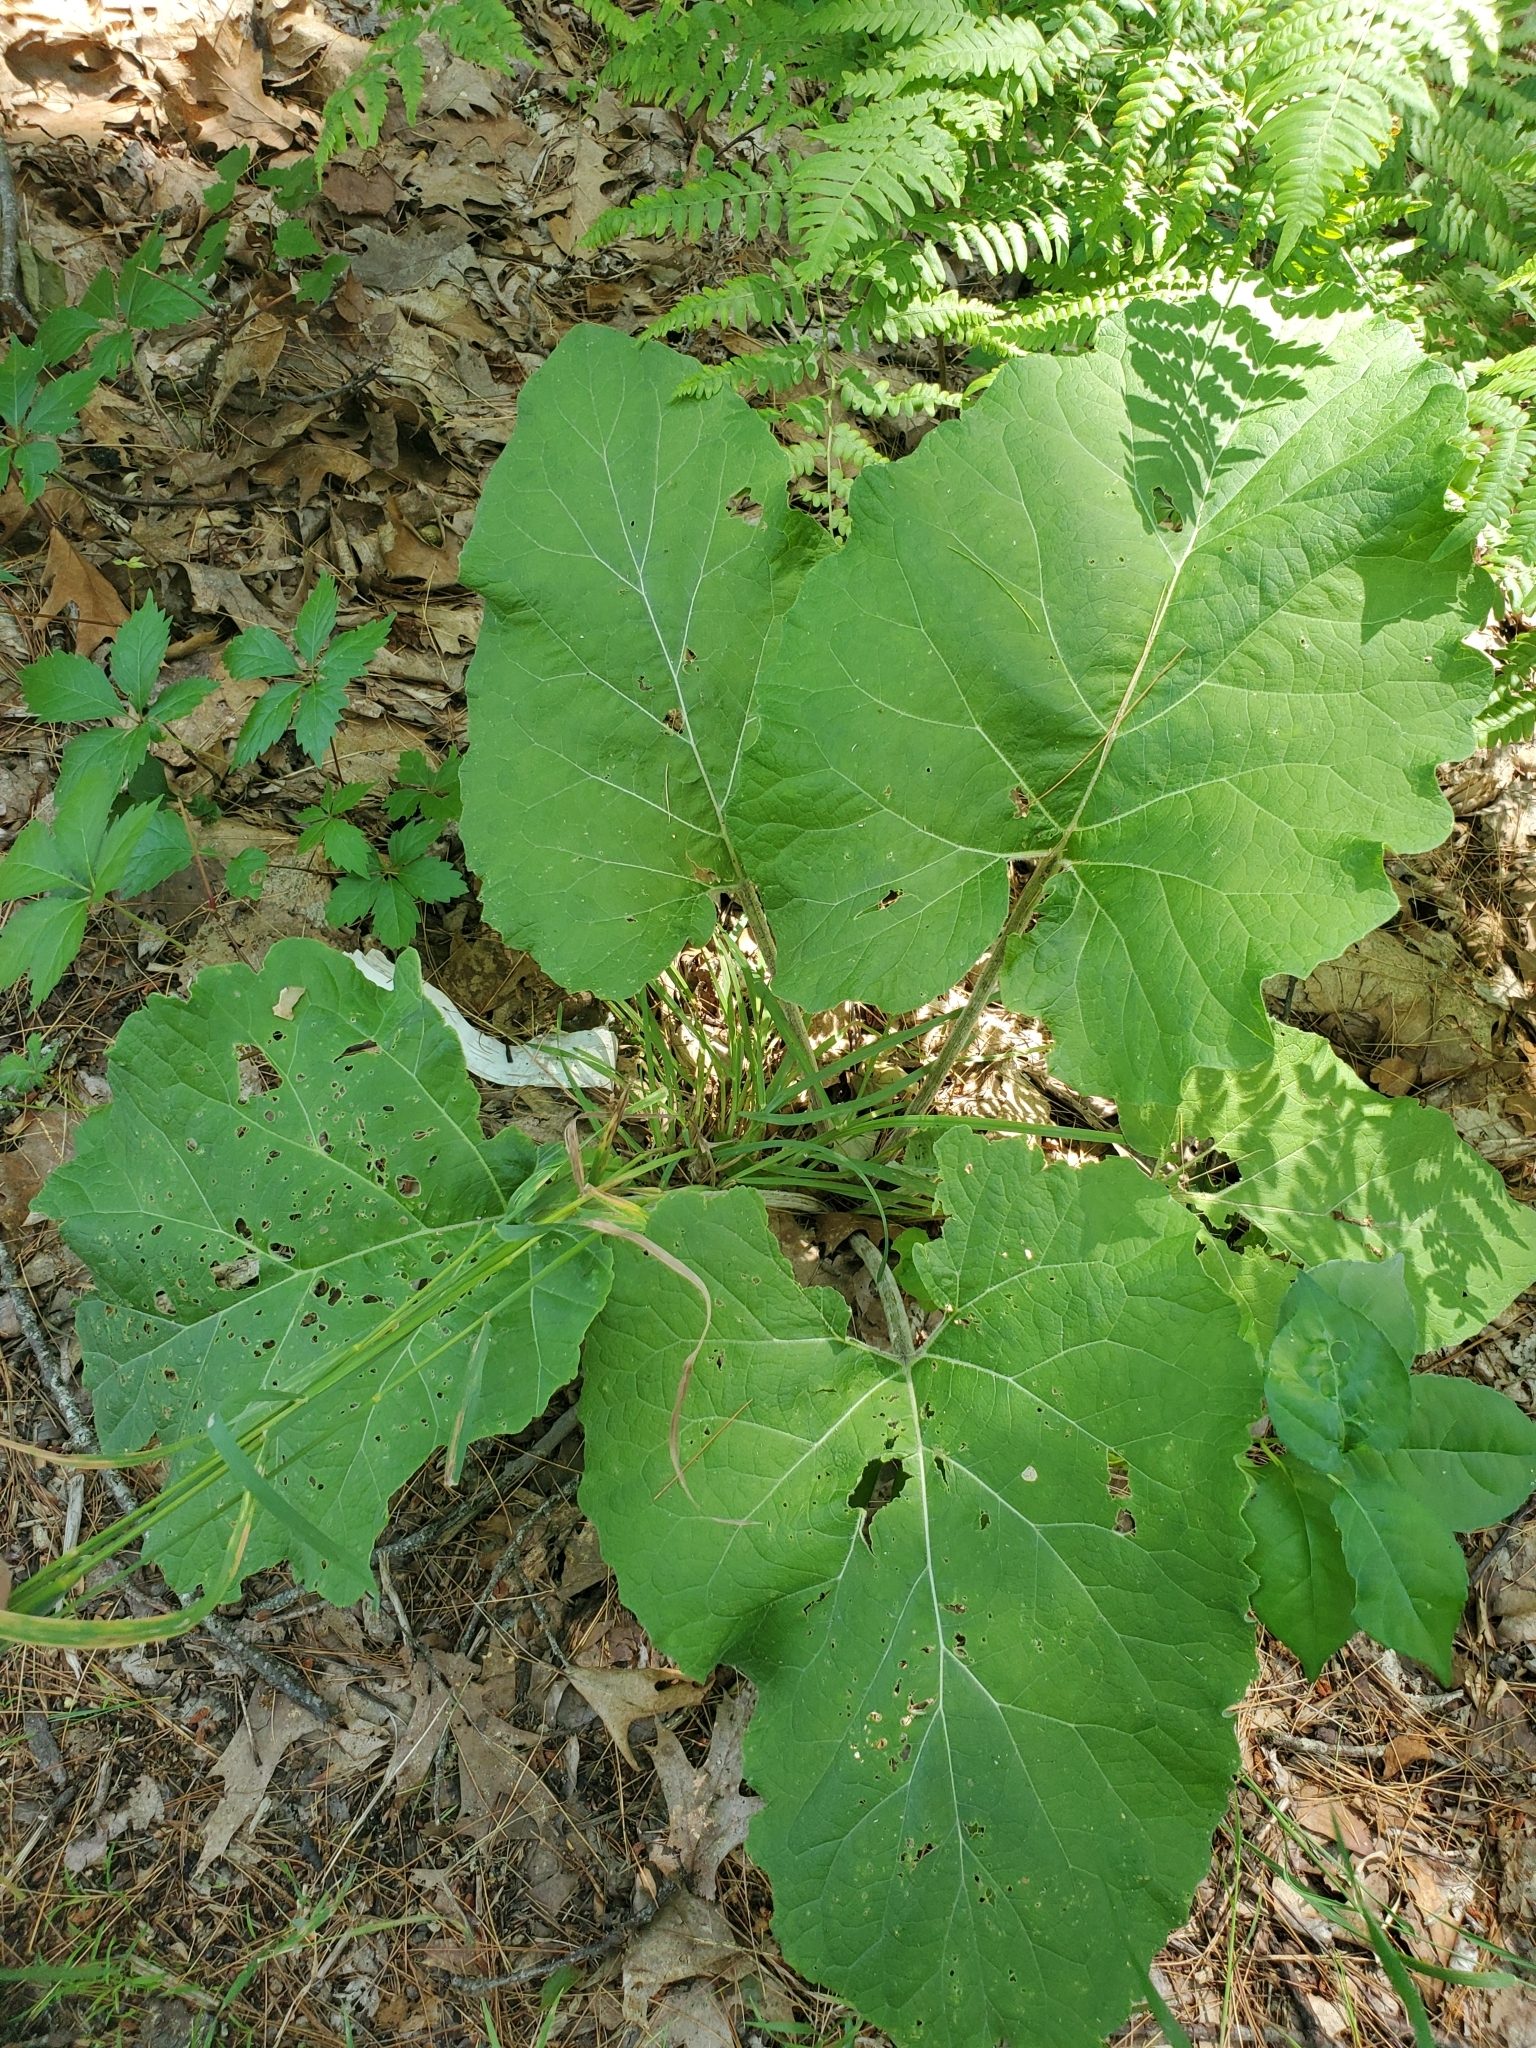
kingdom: Plantae
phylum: Tracheophyta
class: Magnoliopsida
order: Asterales
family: Asteraceae
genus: Arctium
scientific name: Arctium
